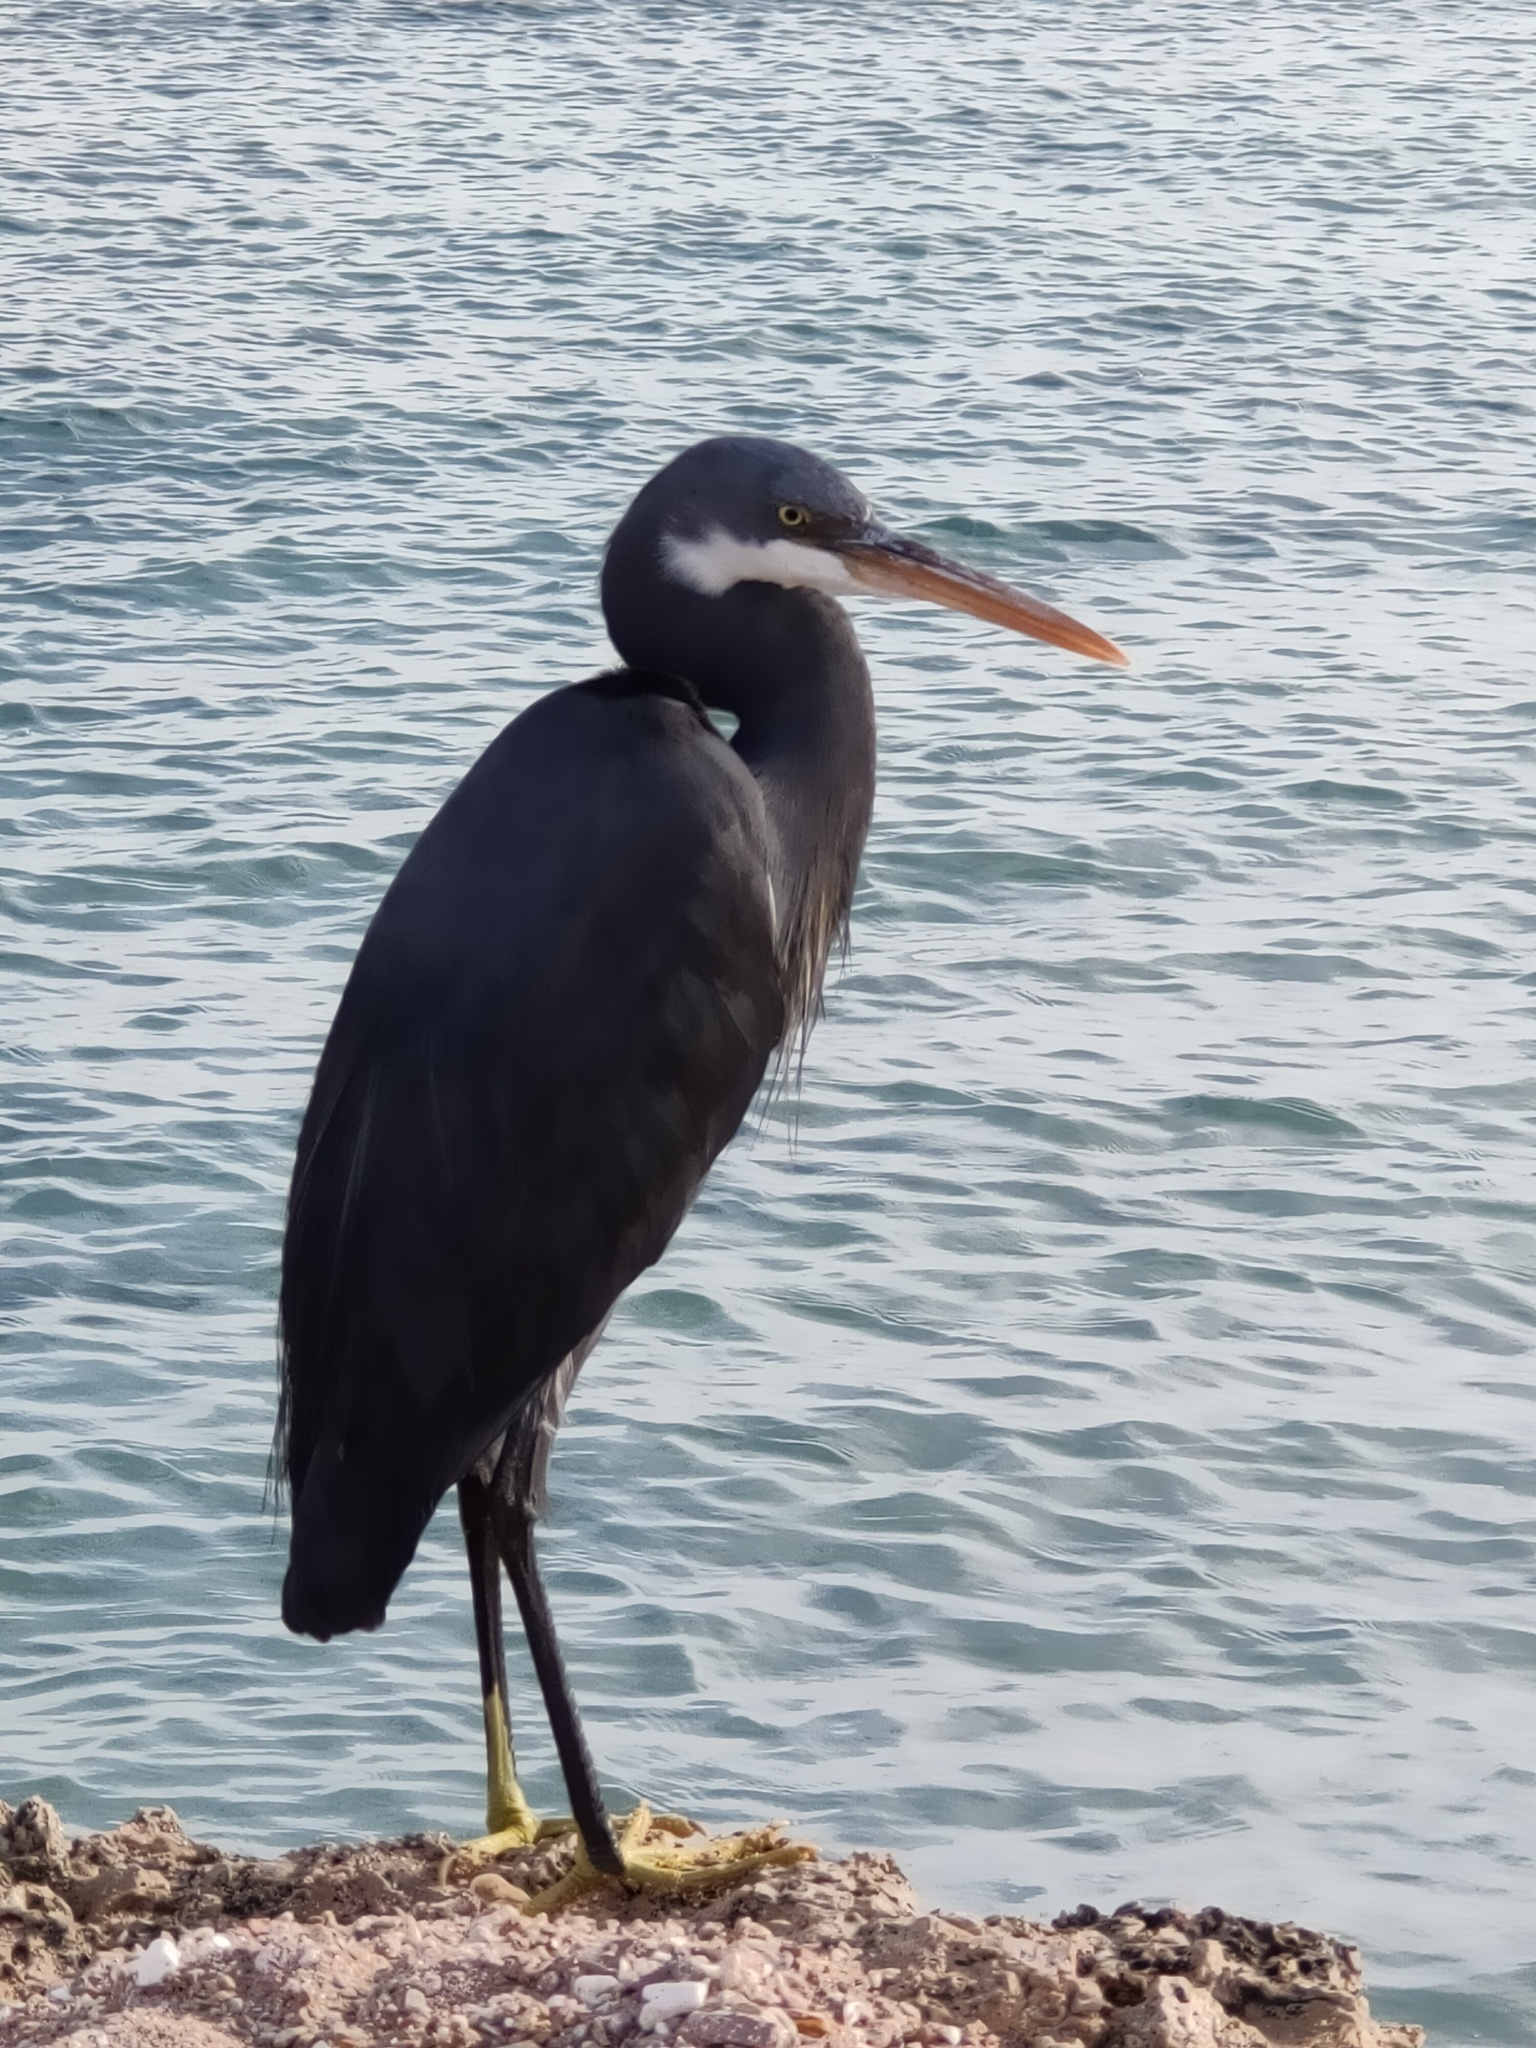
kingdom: Animalia
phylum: Chordata
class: Aves
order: Pelecaniformes
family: Ardeidae
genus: Egretta
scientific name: Egretta gularis
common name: Western reef-heron
